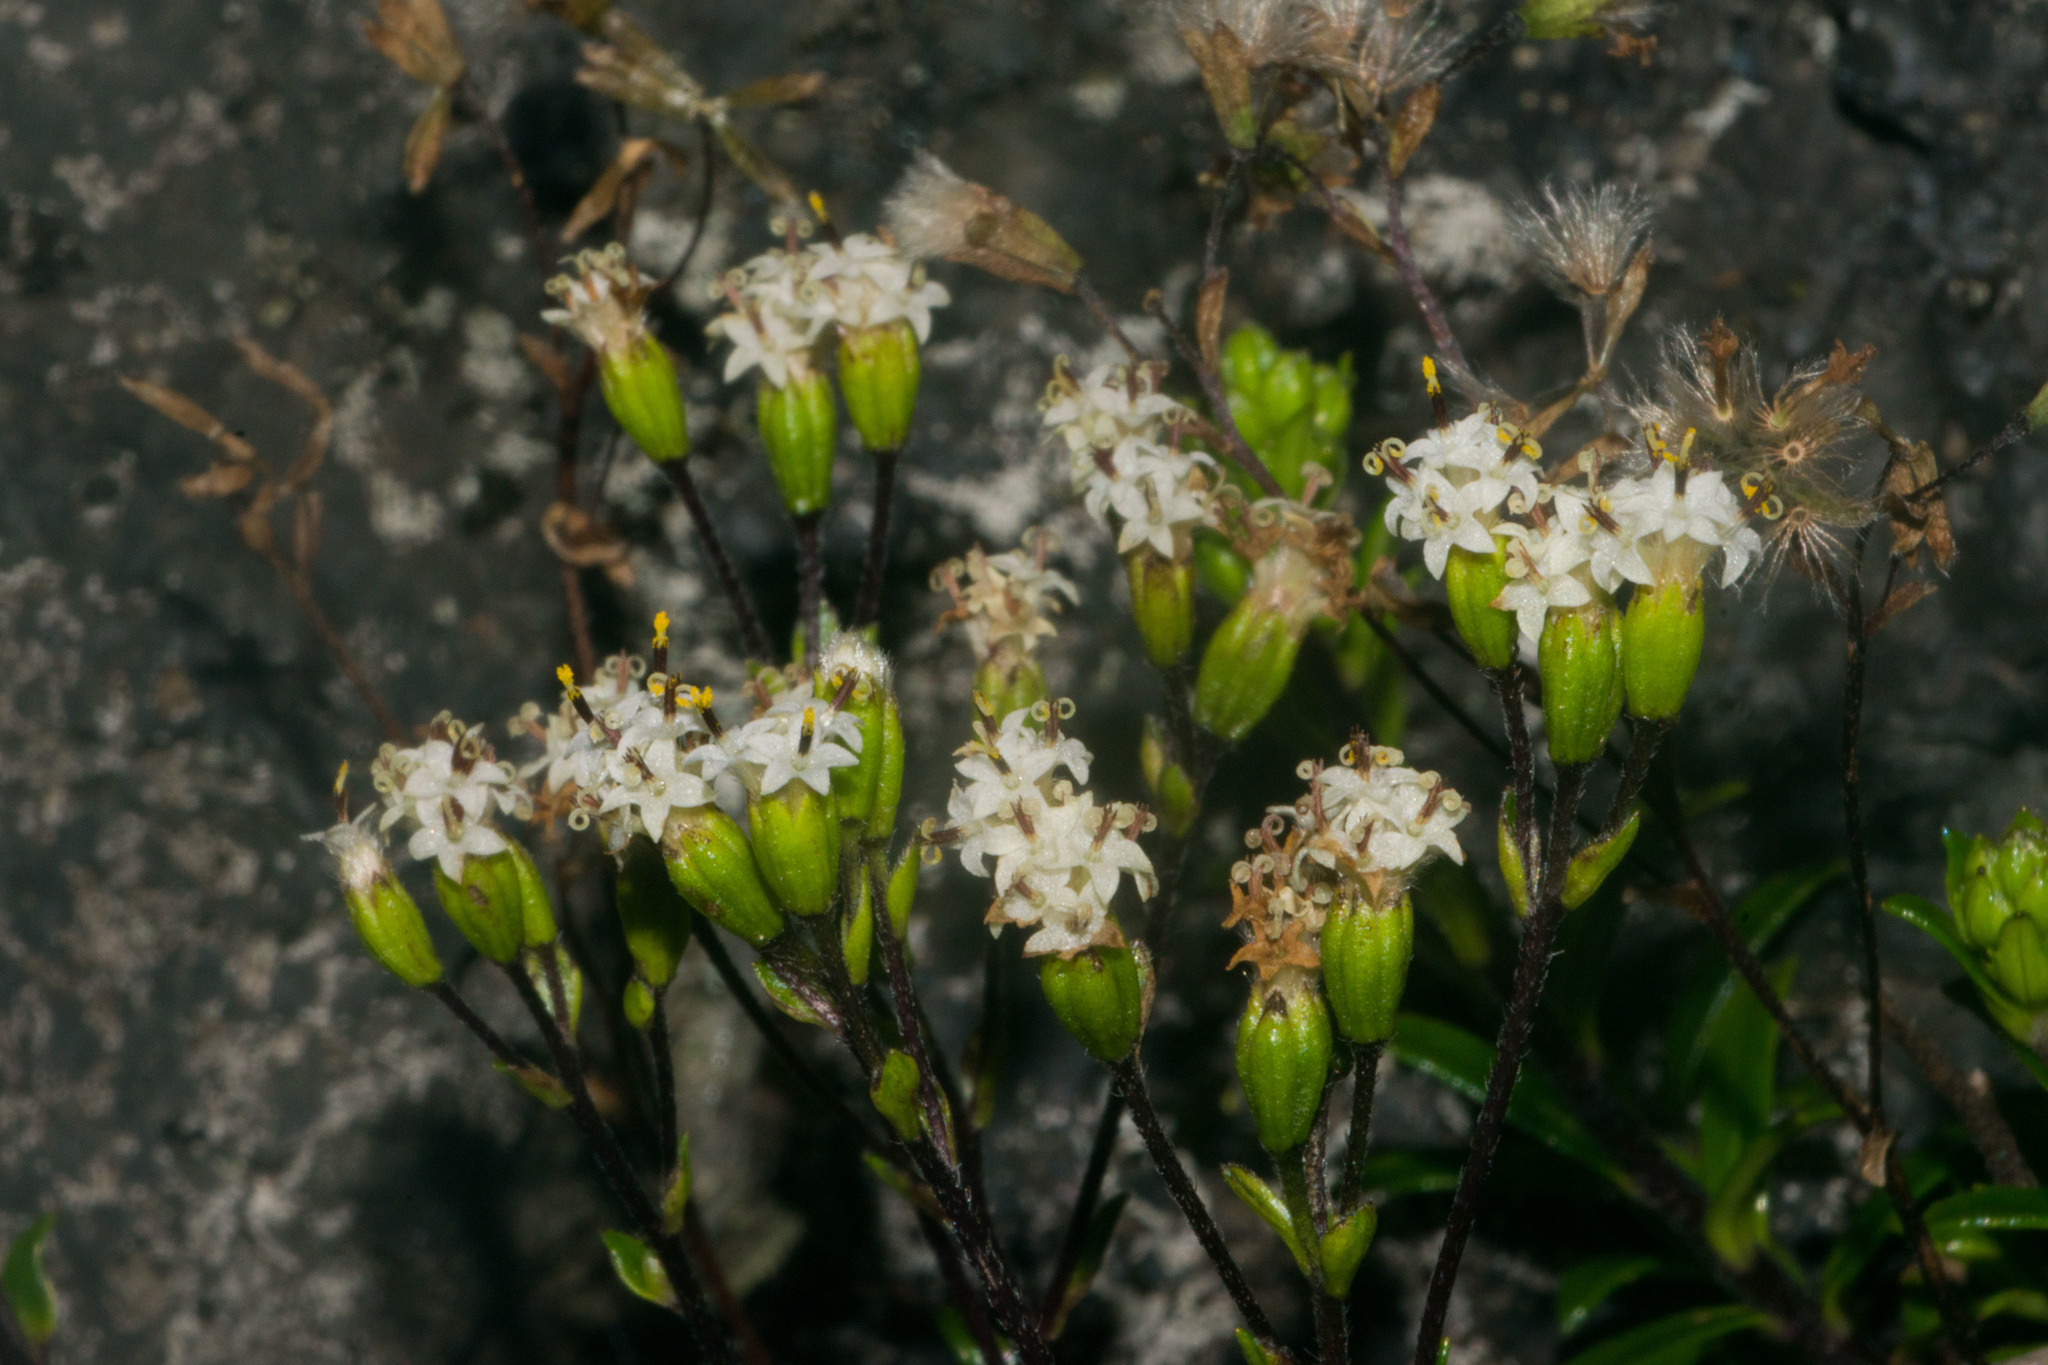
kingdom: Plantae
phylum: Tracheophyta
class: Magnoliopsida
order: Asterales
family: Asteraceae
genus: Dubautia
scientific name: Dubautia scabra
